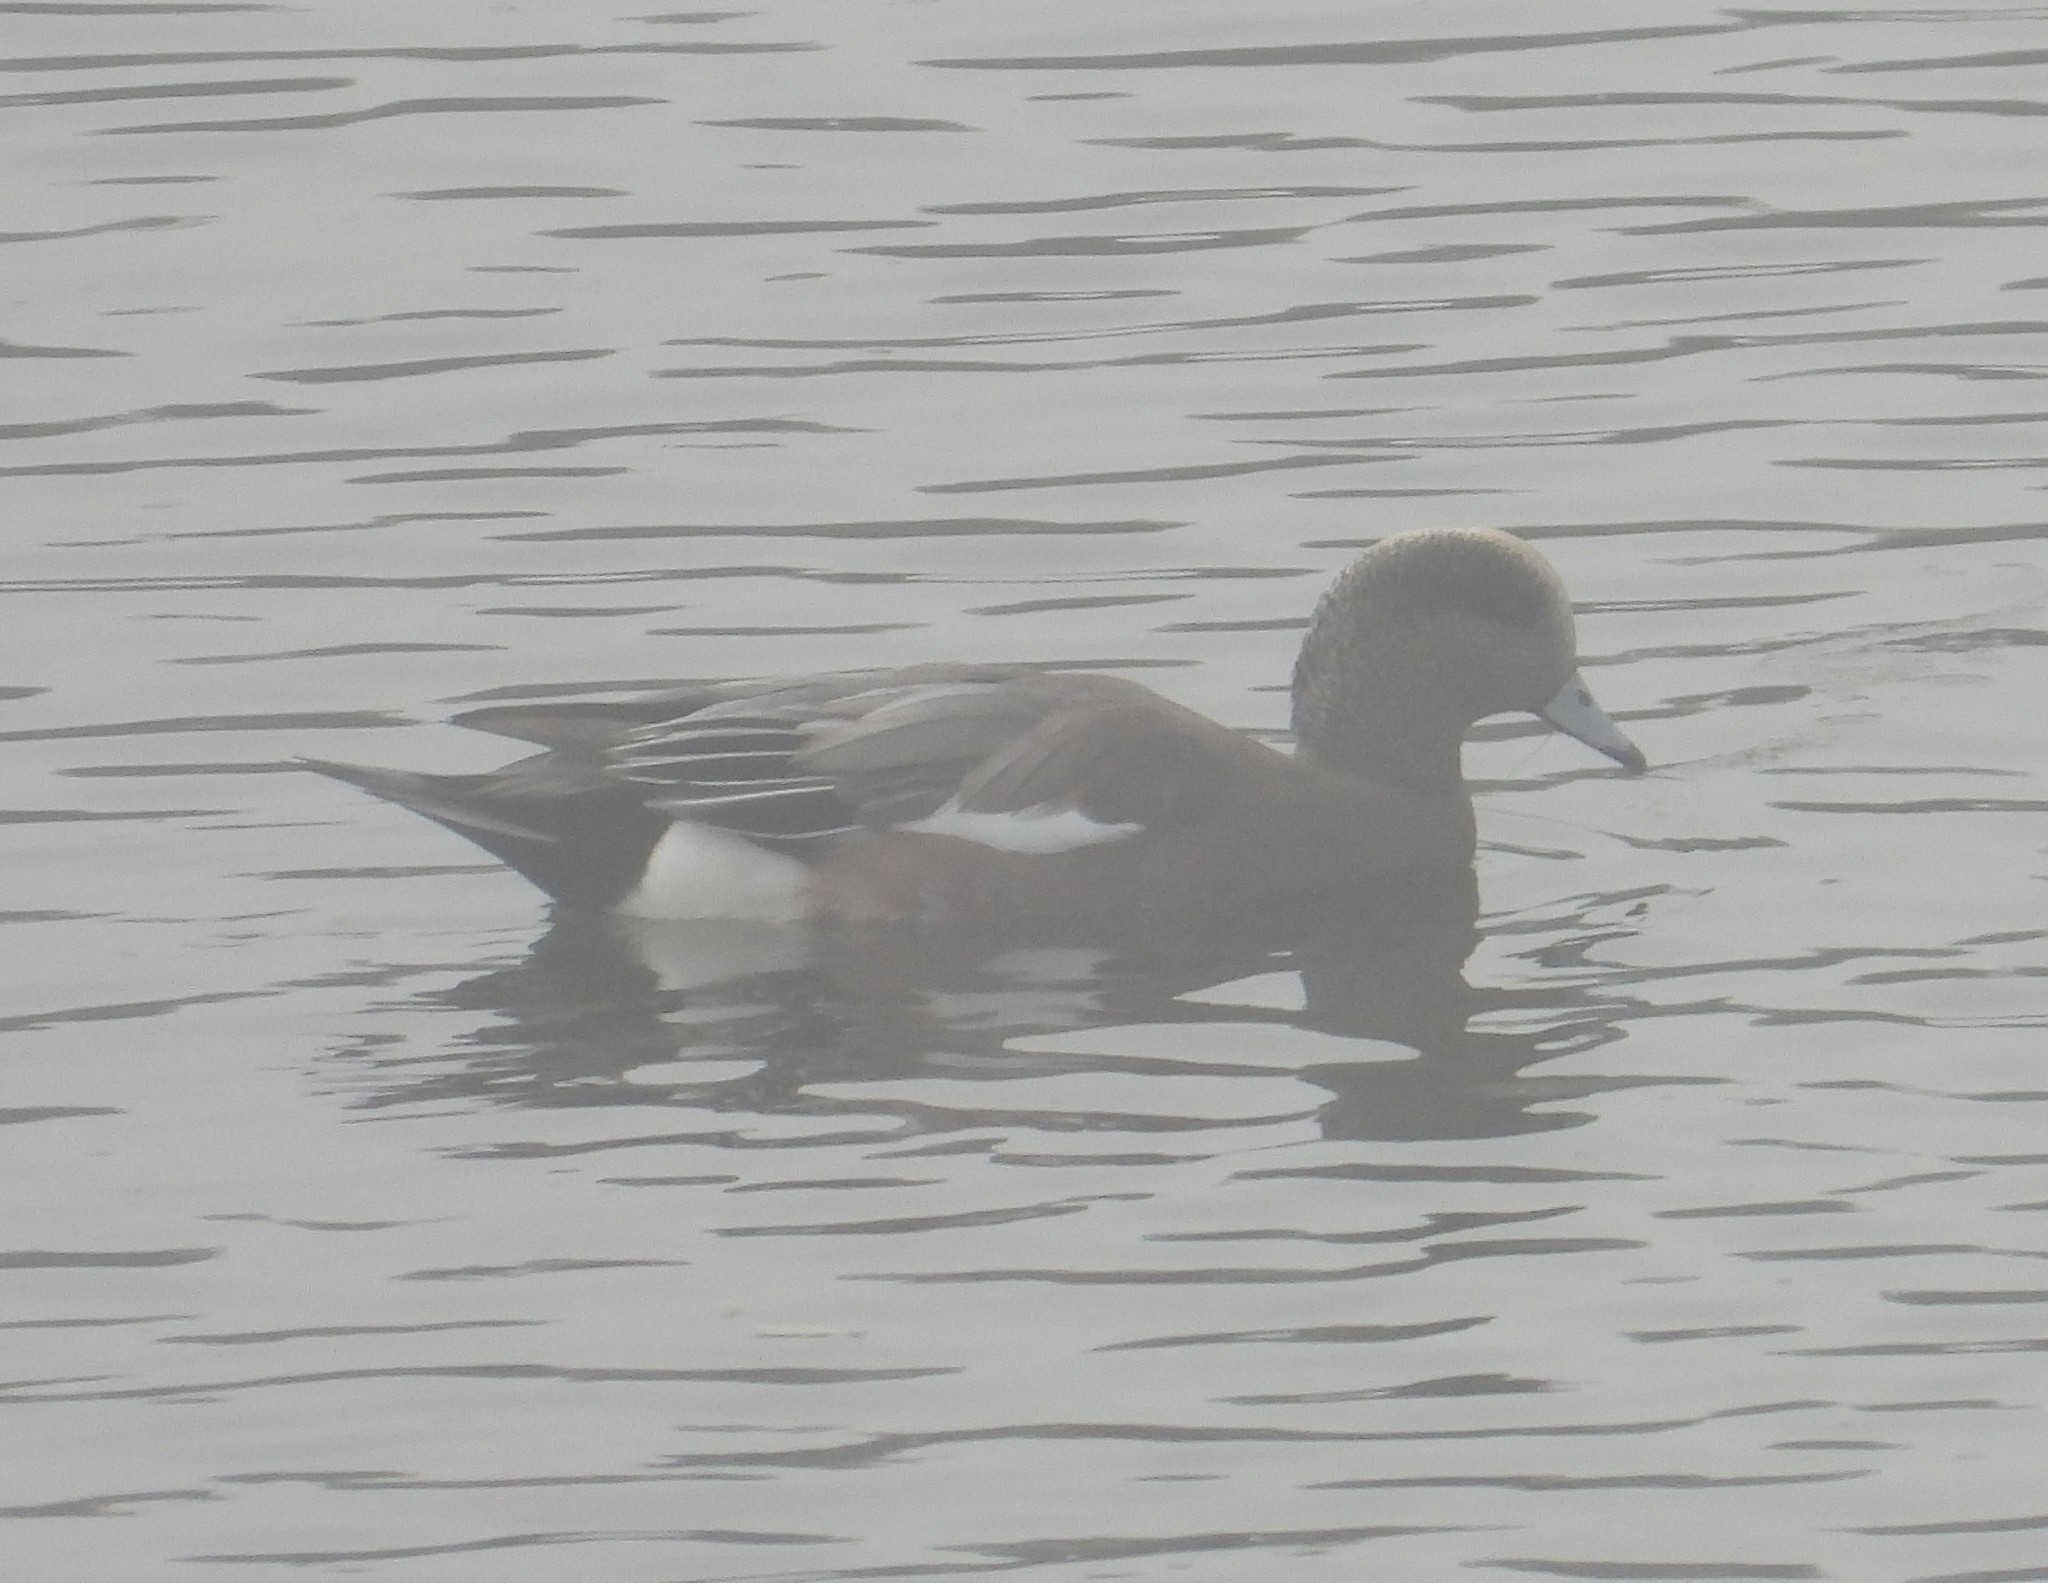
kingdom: Animalia
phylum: Chordata
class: Aves
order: Anseriformes
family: Anatidae
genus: Mareca
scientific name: Mareca americana
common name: American wigeon
